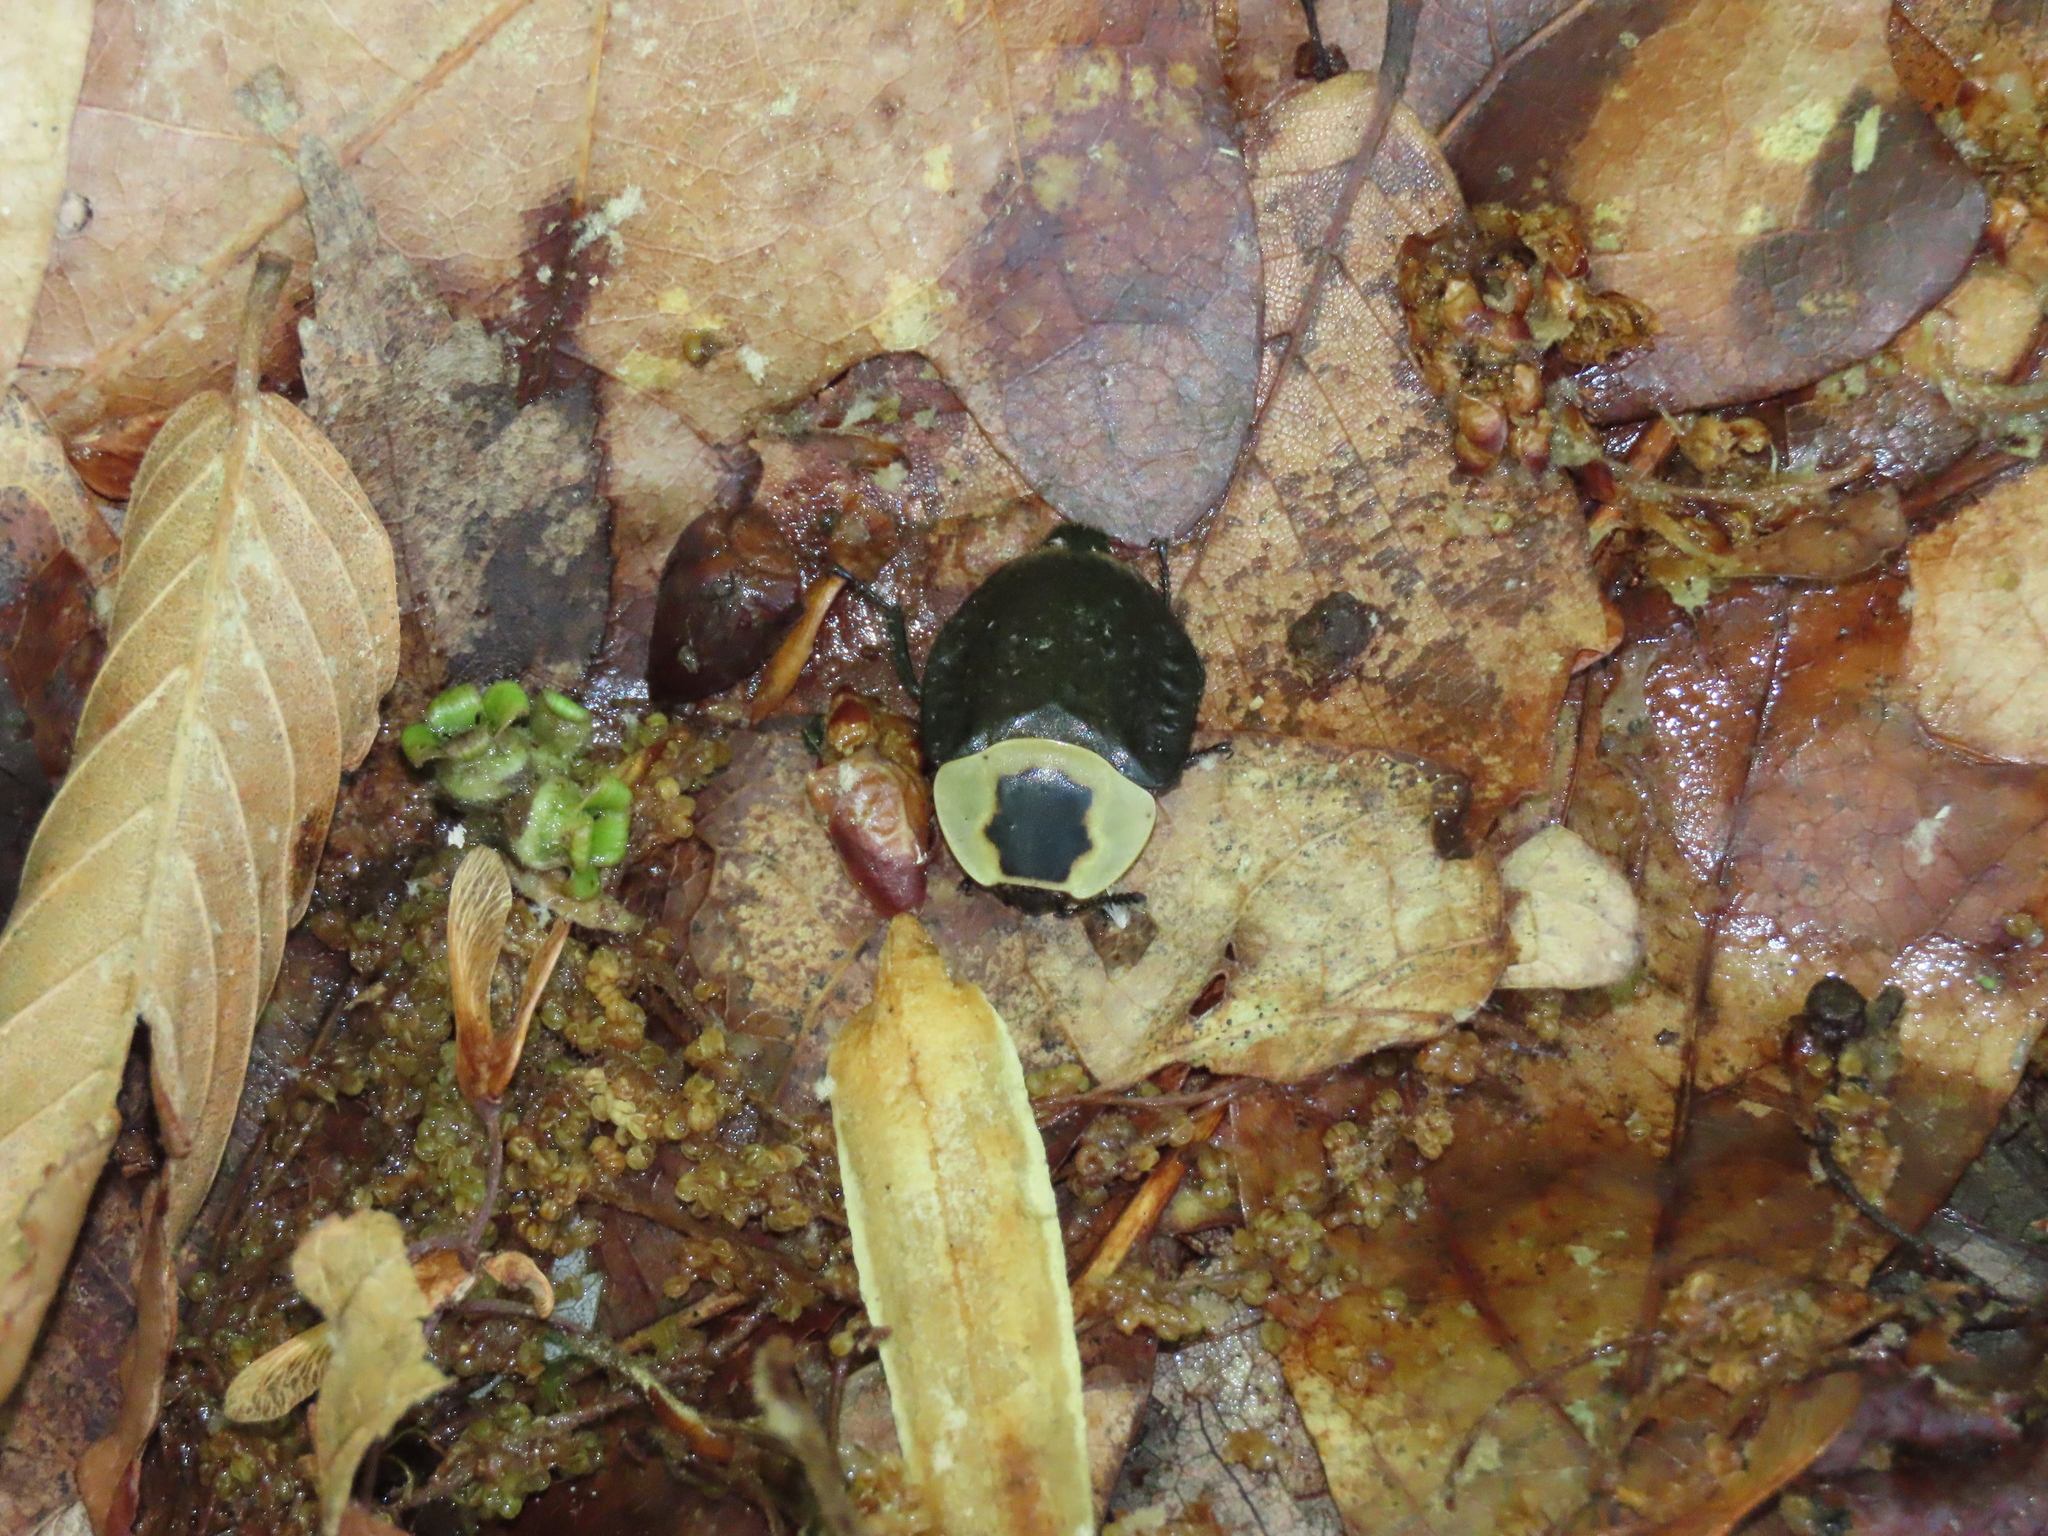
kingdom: Animalia
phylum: Arthropoda
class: Insecta
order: Coleoptera
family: Staphylinidae
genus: Necrophila
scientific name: Necrophila americana
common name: American carrion beetle
